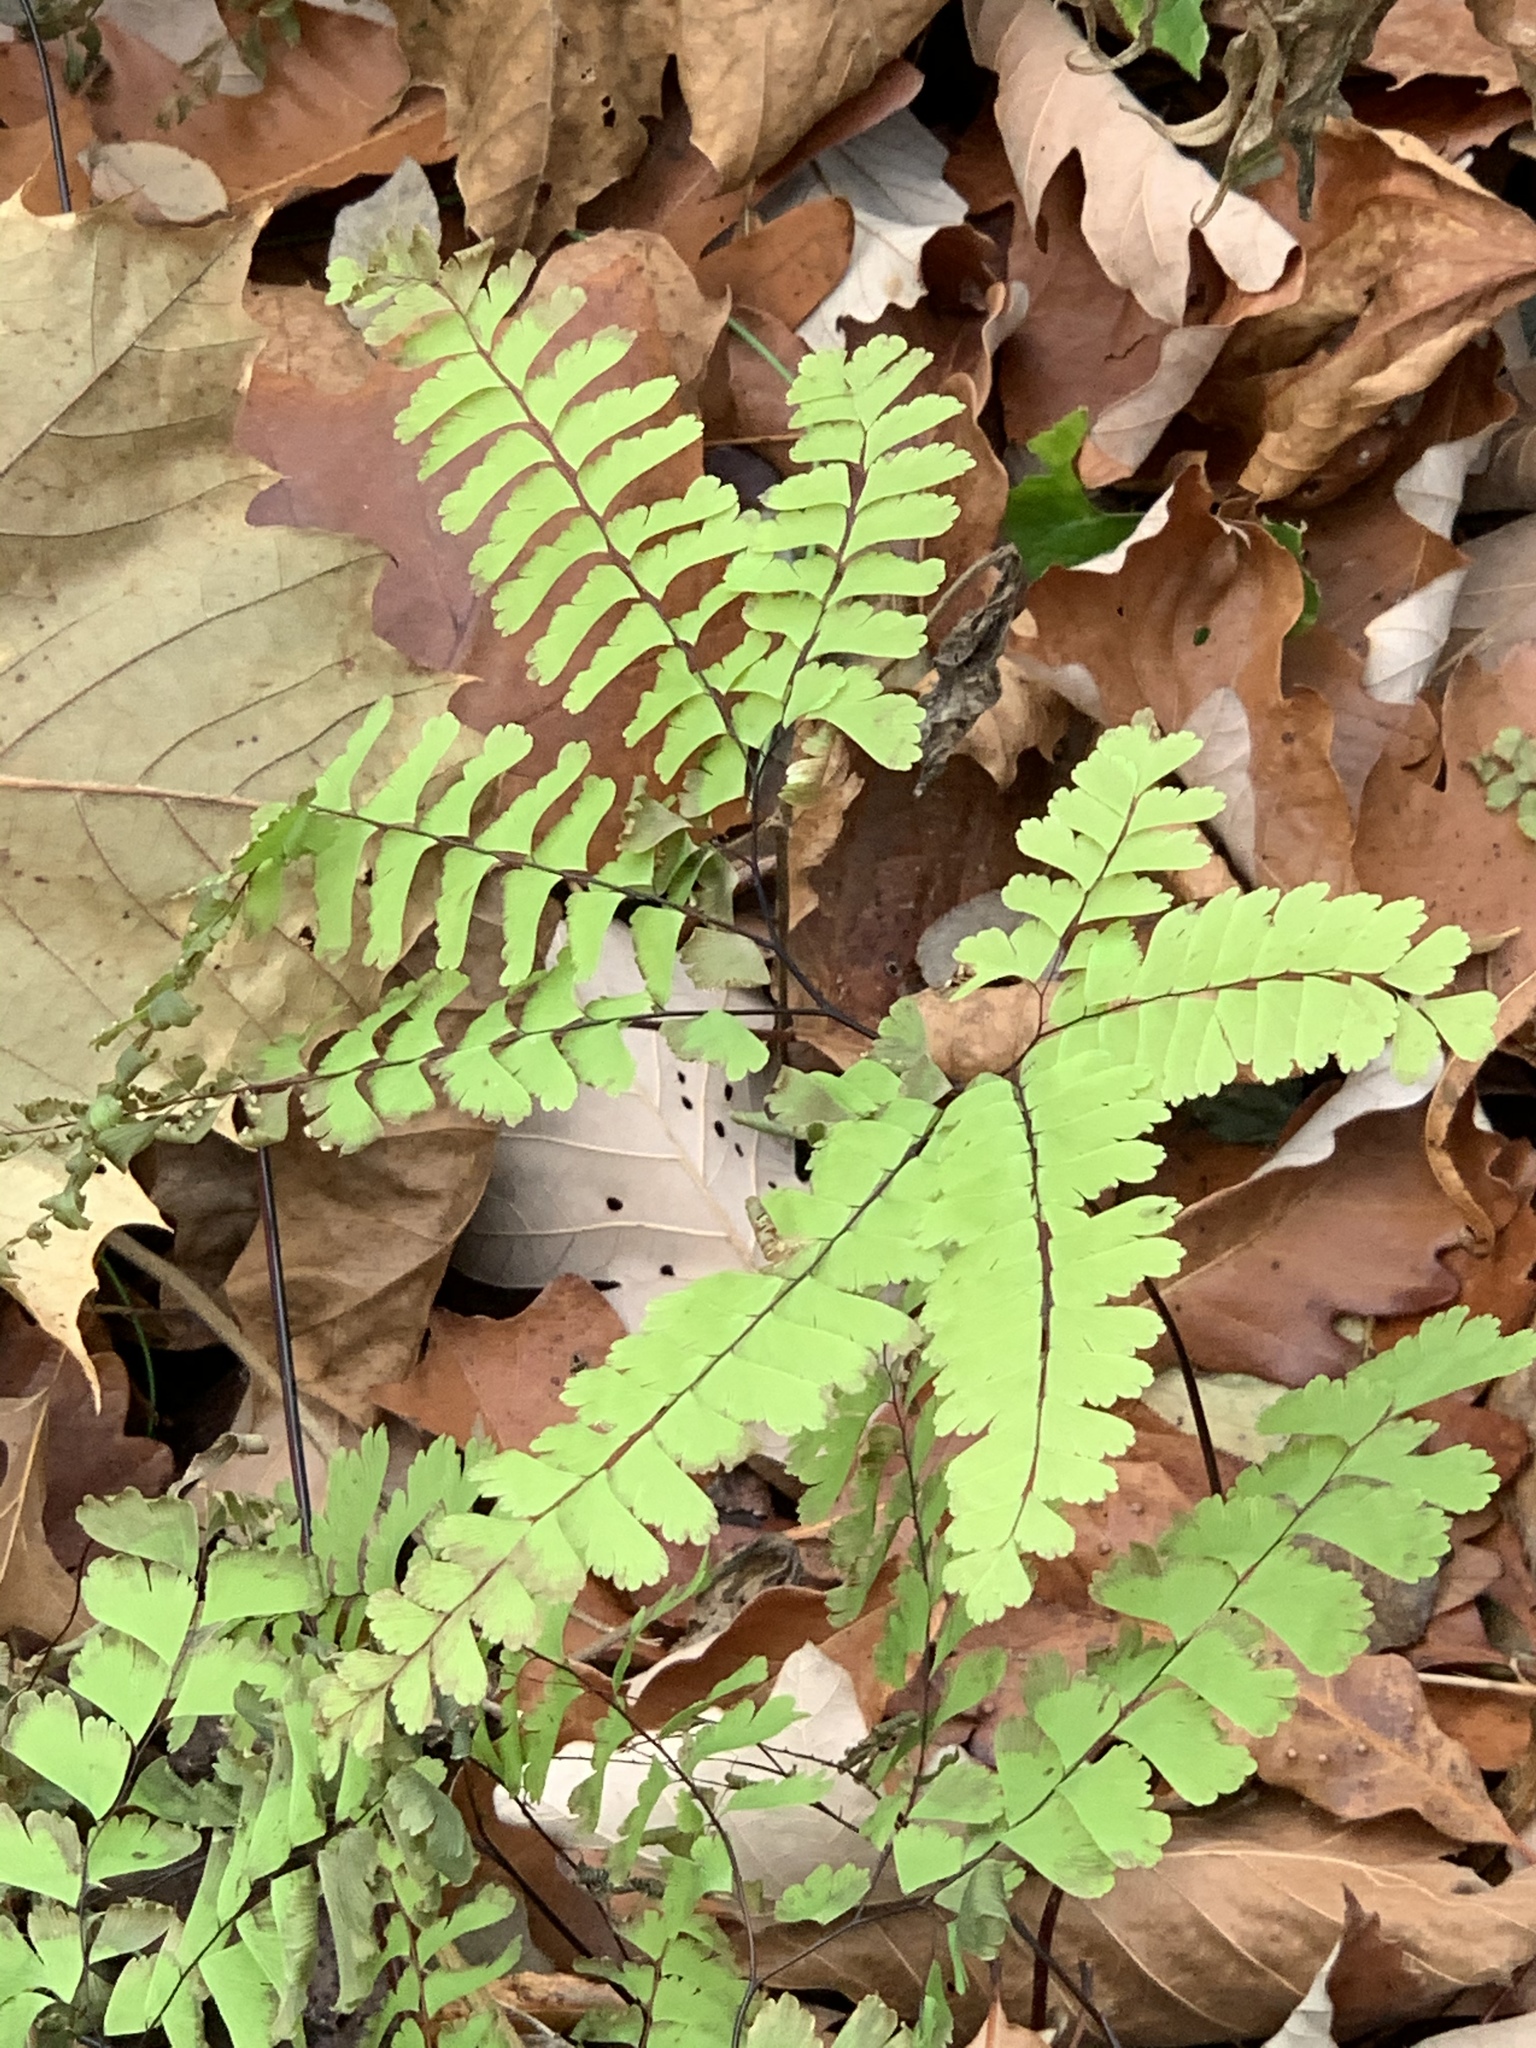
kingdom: Plantae
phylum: Tracheophyta
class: Polypodiopsida
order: Polypodiales
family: Pteridaceae
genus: Adiantum
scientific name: Adiantum pedatum
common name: Five-finger fern
